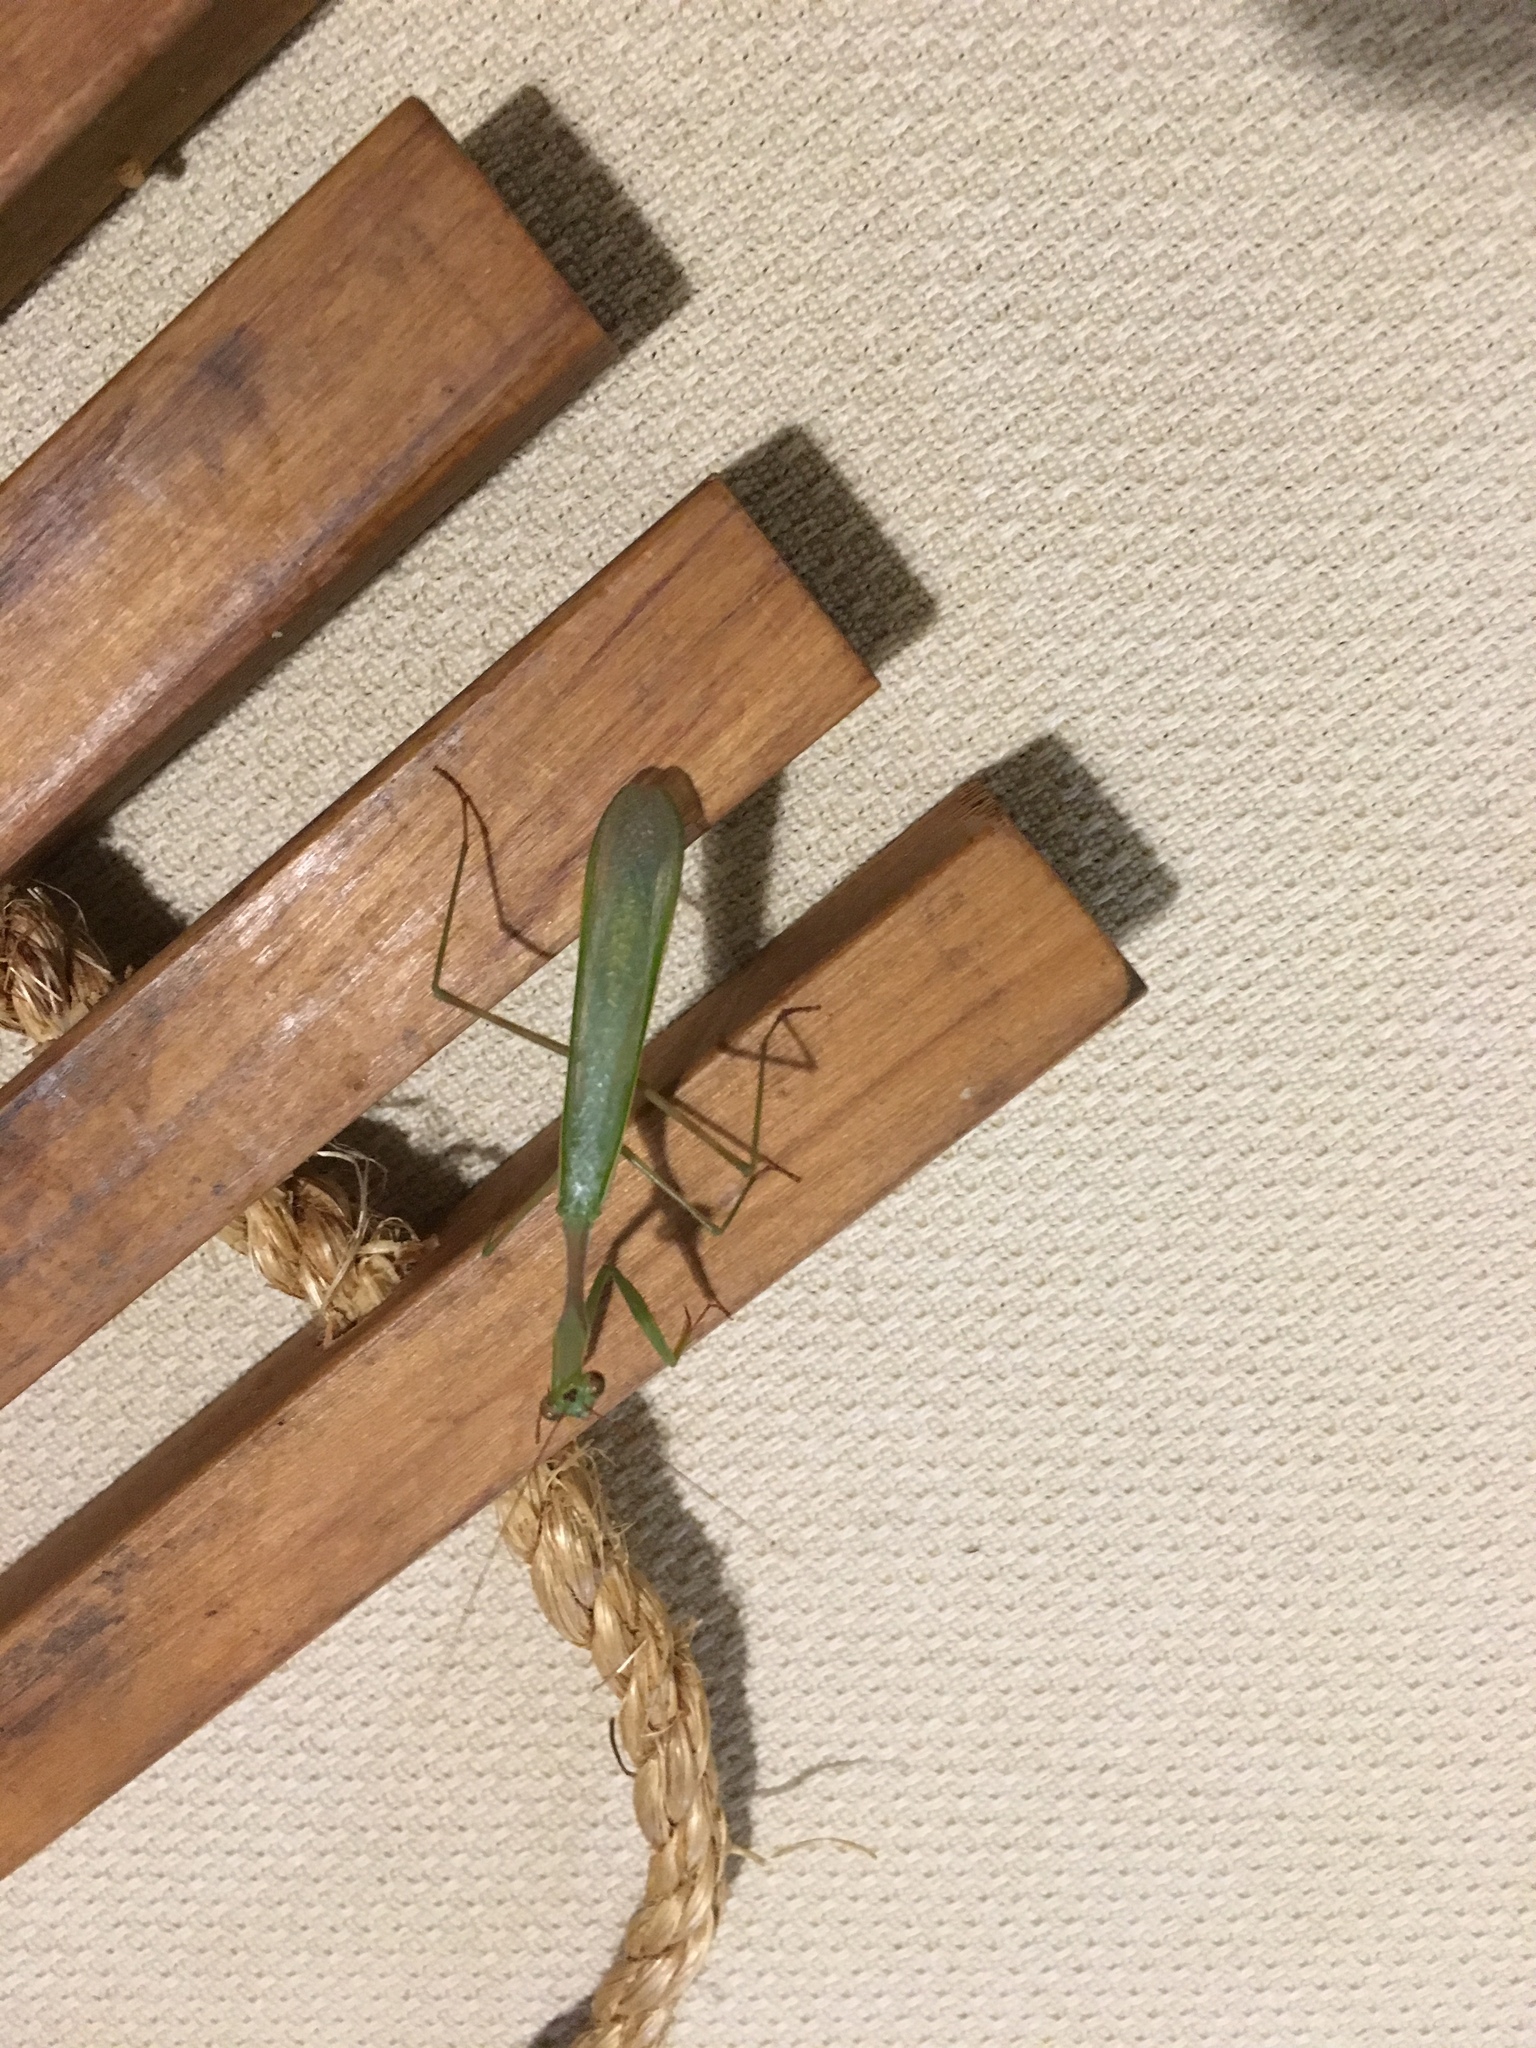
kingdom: Animalia
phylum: Arthropoda
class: Insecta
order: Mantodea
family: Miomantidae
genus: Miomantis
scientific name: Miomantis caffra
